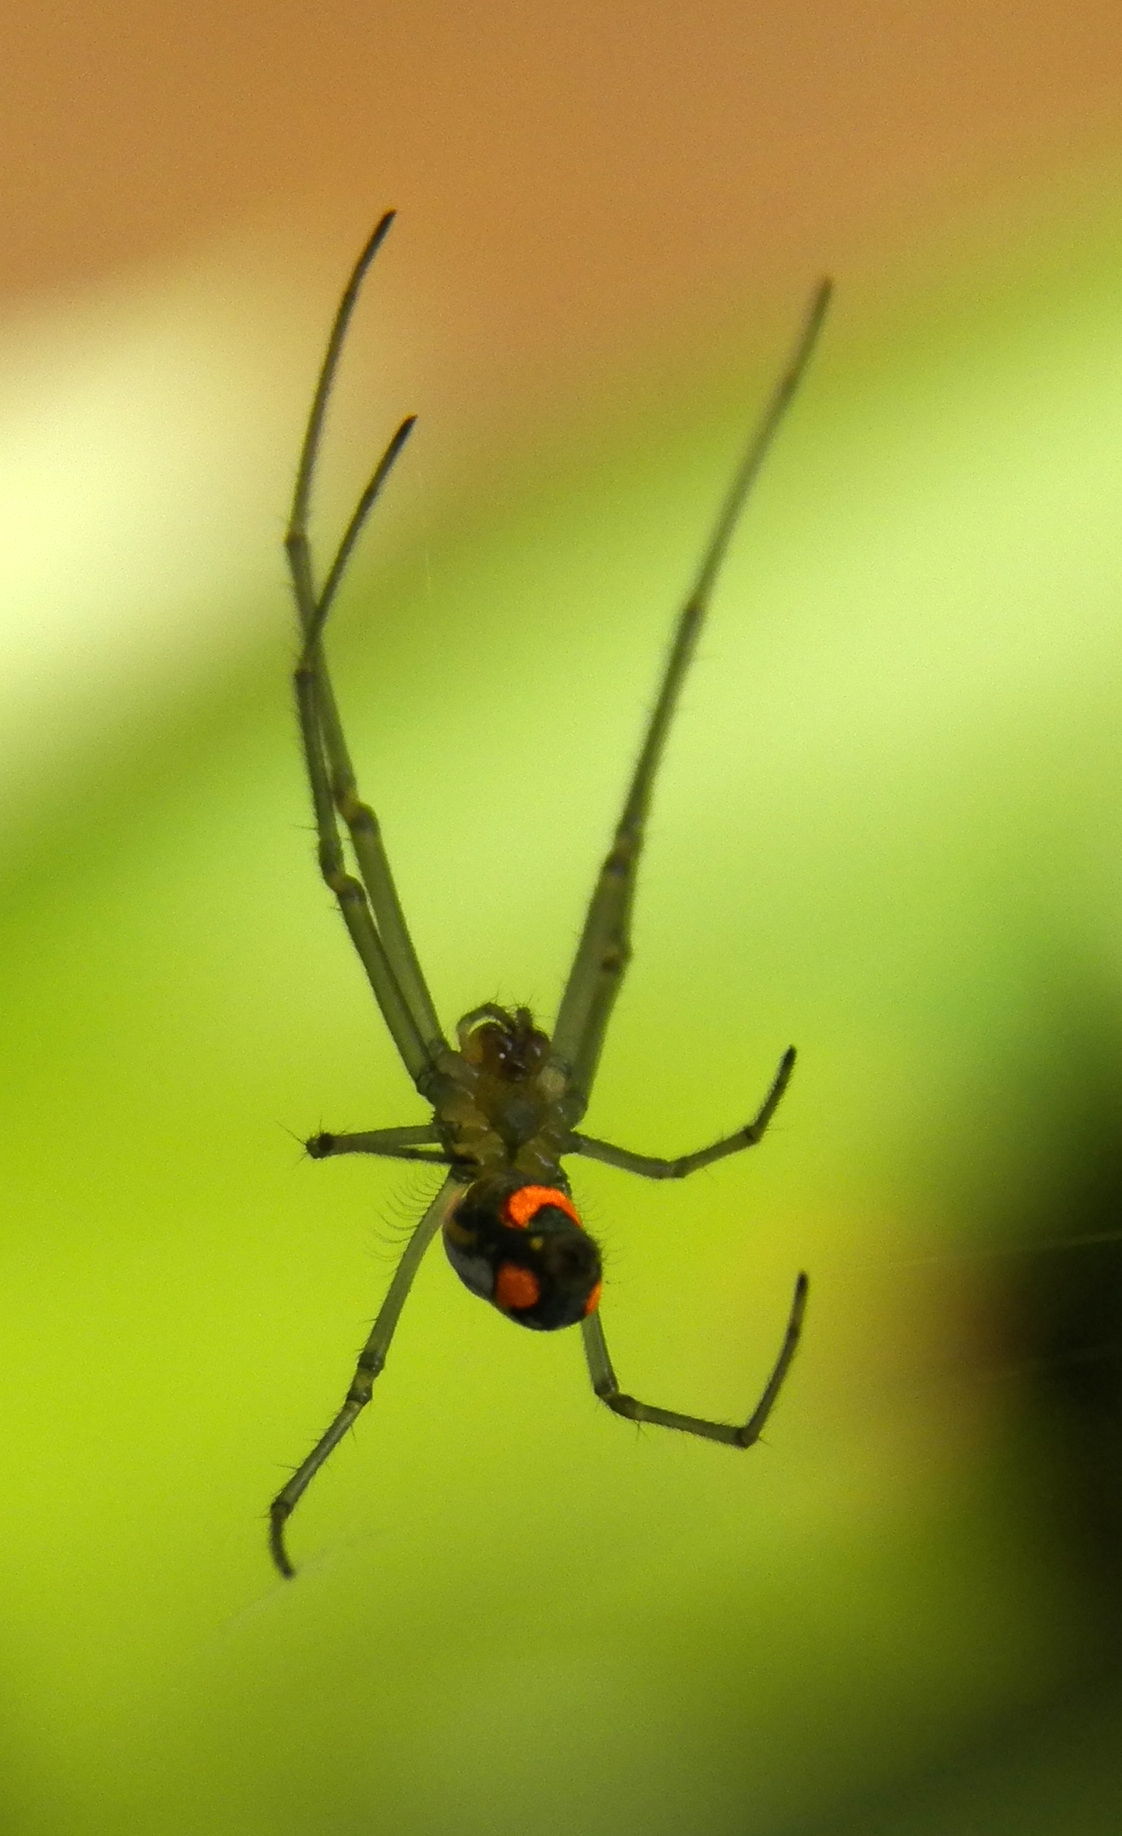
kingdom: Animalia
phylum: Arthropoda
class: Arachnida
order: Araneae
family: Tetragnathidae
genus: Leucauge
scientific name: Leucauge argyrobapta
